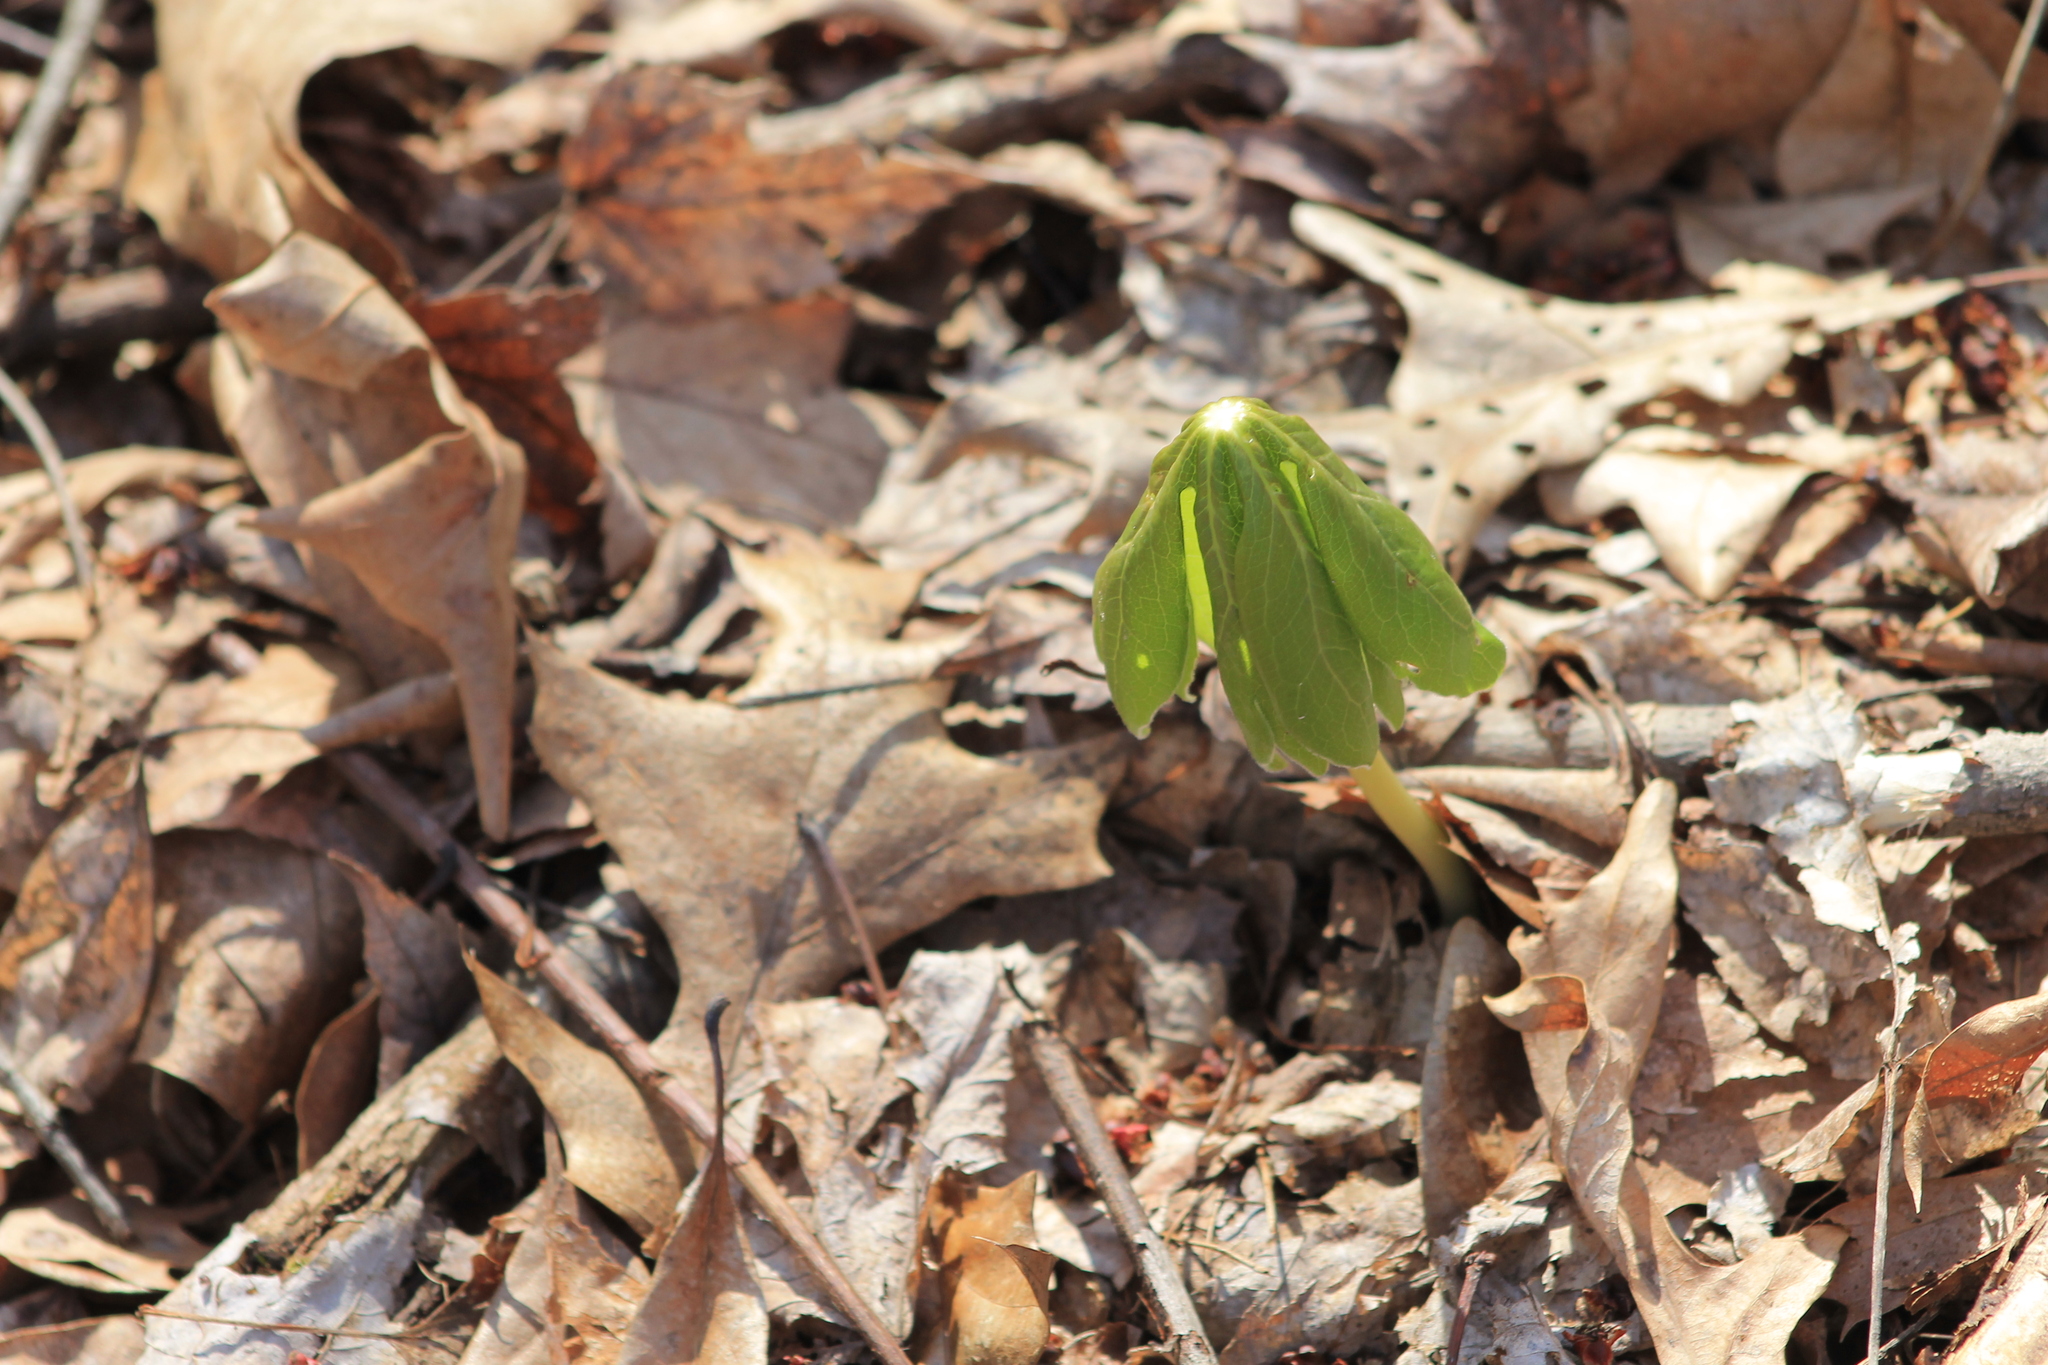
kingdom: Plantae
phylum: Tracheophyta
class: Magnoliopsida
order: Ranunculales
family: Berberidaceae
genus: Podophyllum
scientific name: Podophyllum peltatum
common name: Wild mandrake
